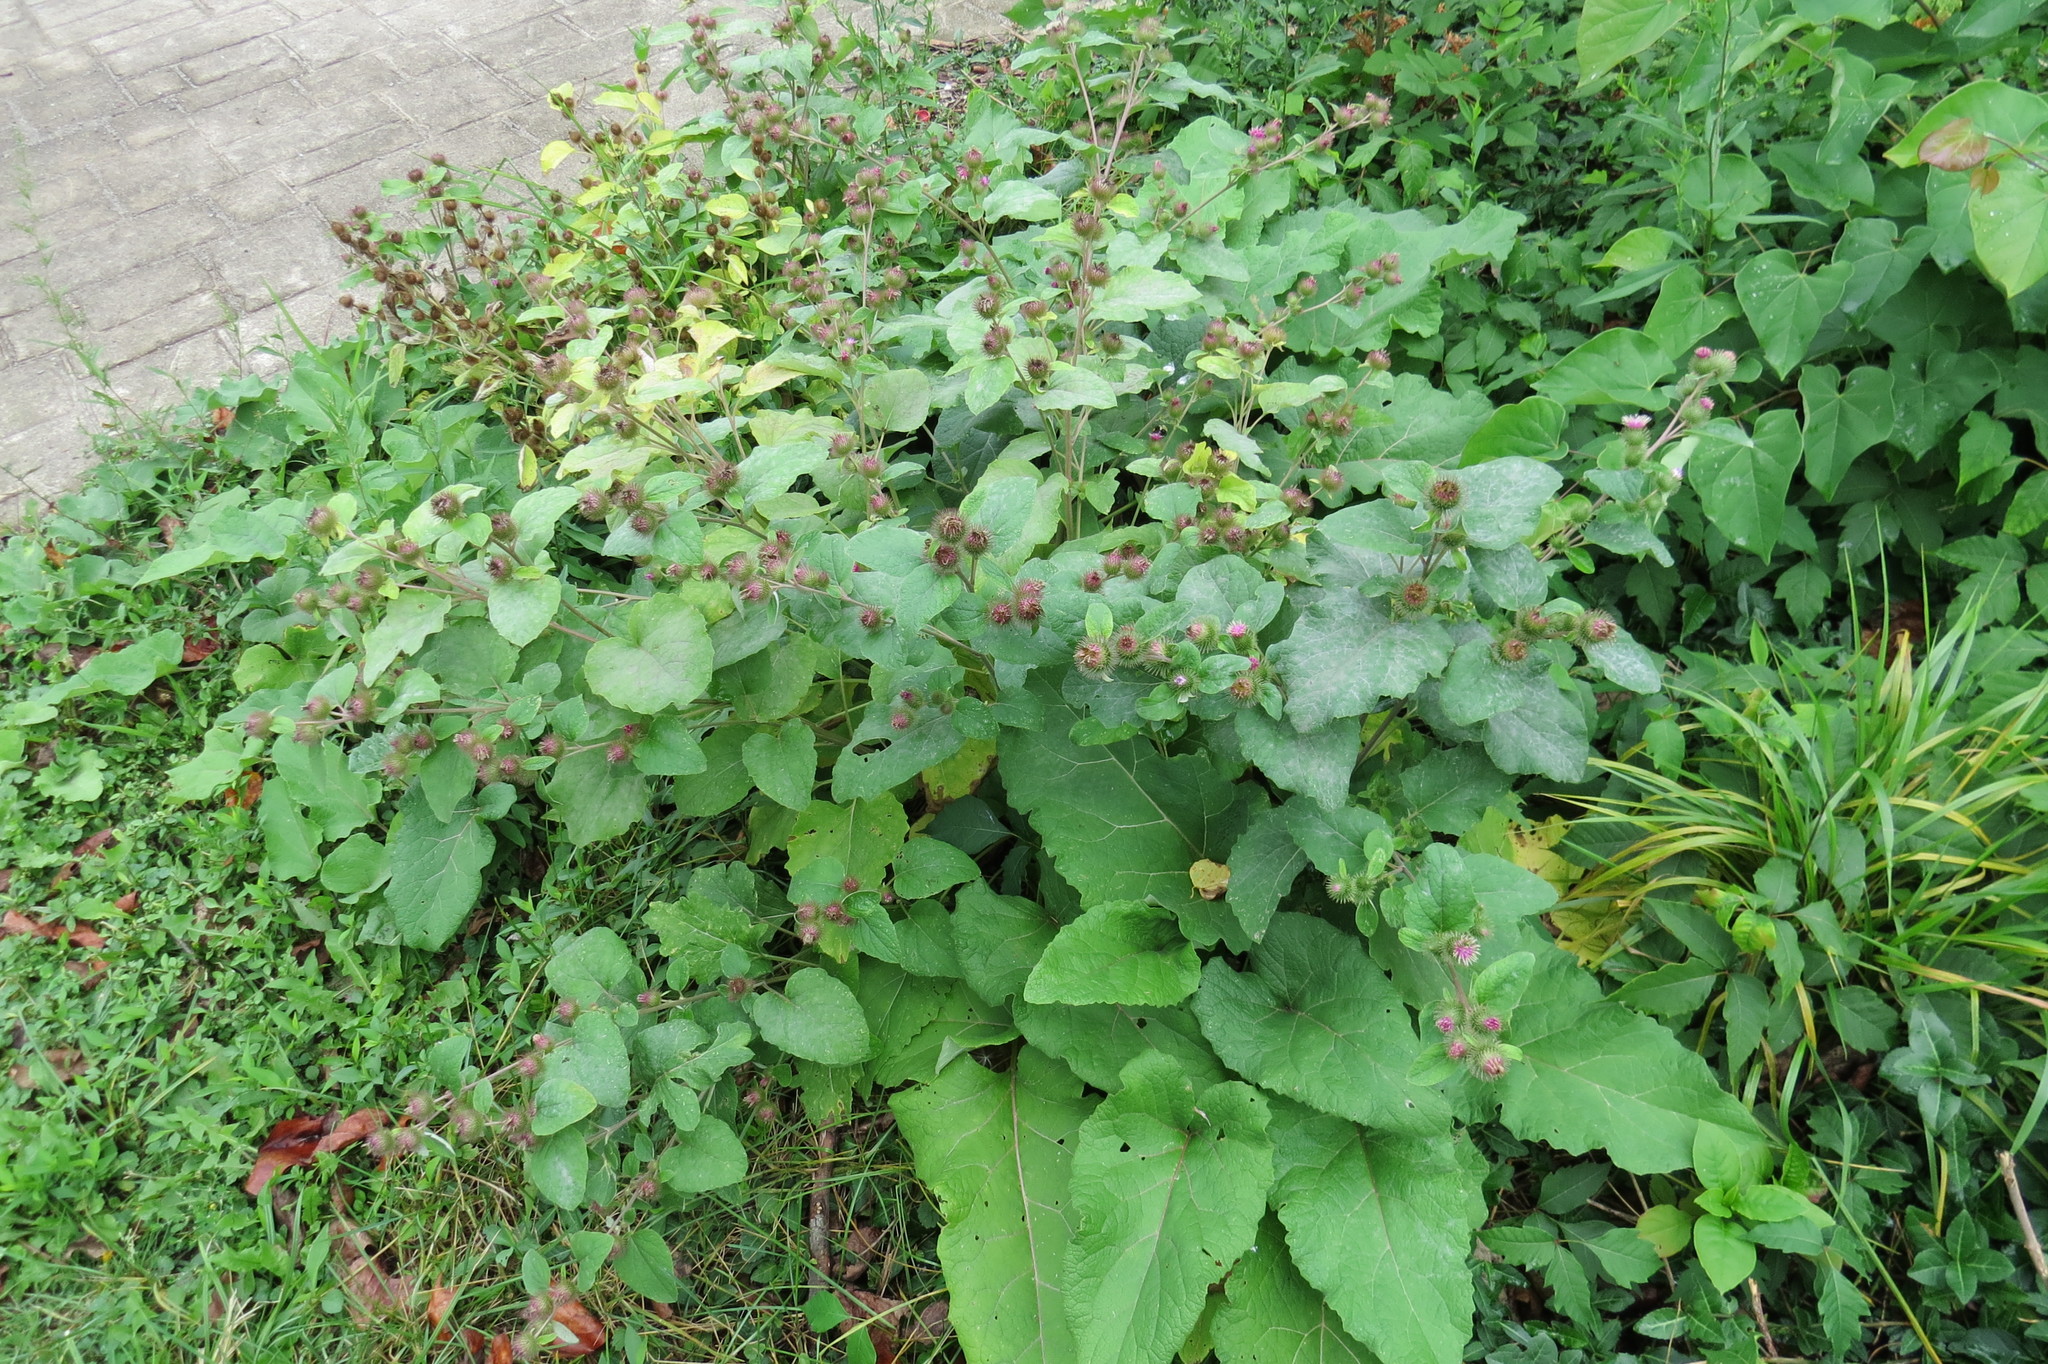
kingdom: Plantae
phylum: Tracheophyta
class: Magnoliopsida
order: Asterales
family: Asteraceae
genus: Arctium
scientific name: Arctium minus
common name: Lesser burdock
